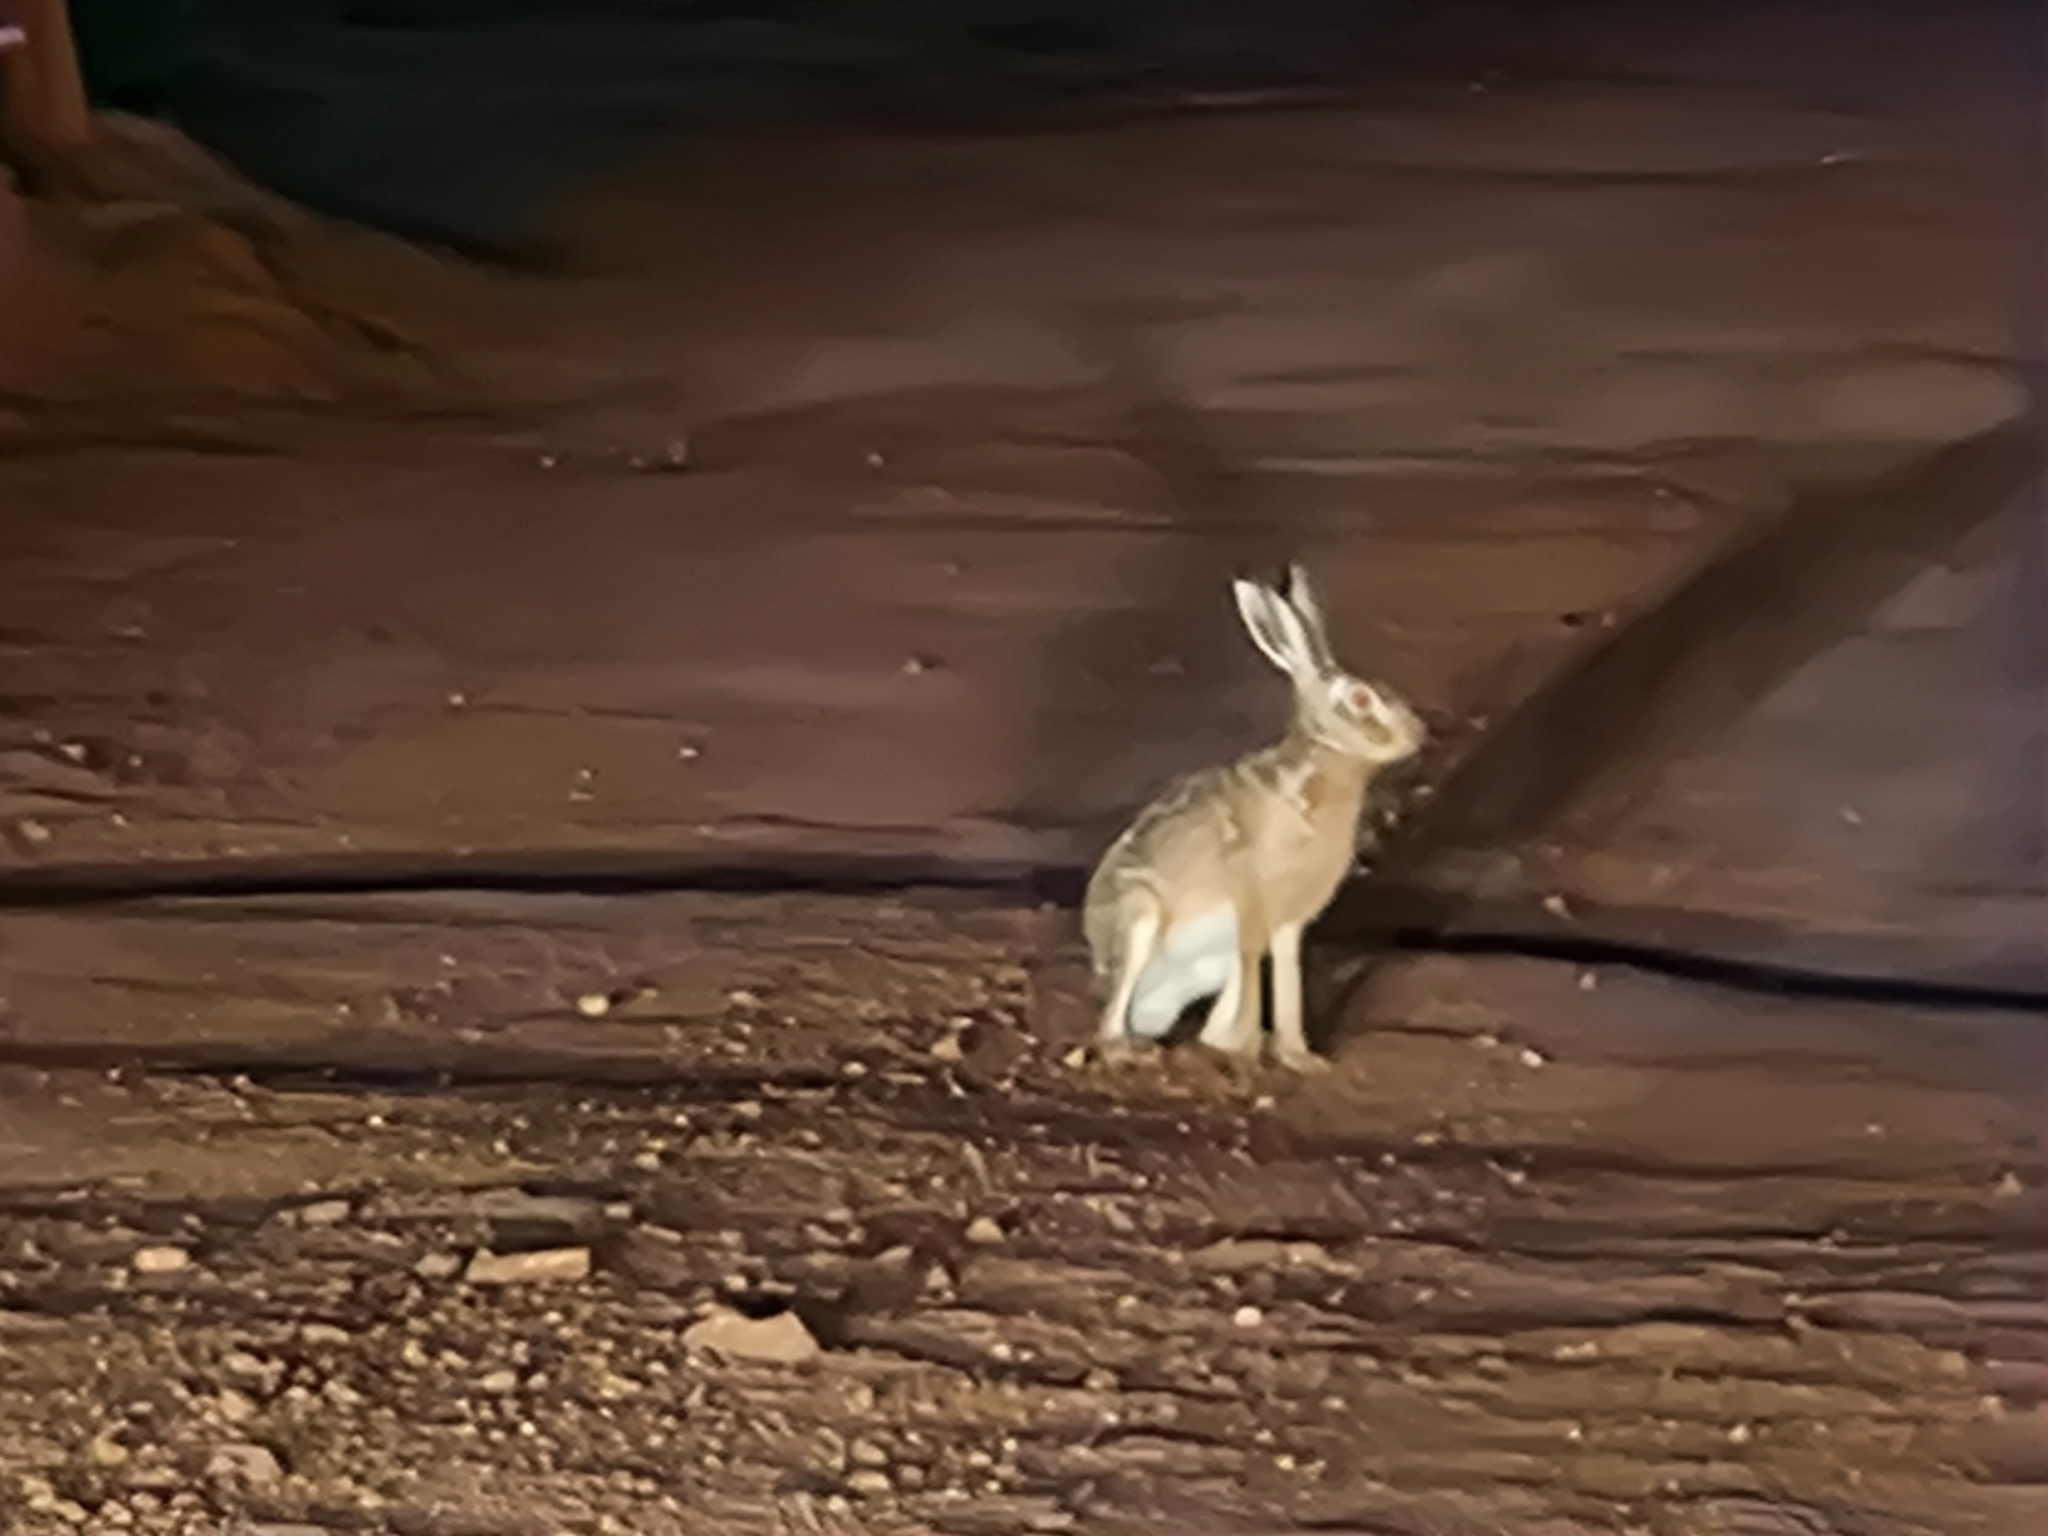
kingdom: Animalia
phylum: Chordata
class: Mammalia
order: Lagomorpha
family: Leporidae
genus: Lepus
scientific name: Lepus europaeus
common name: European hare
